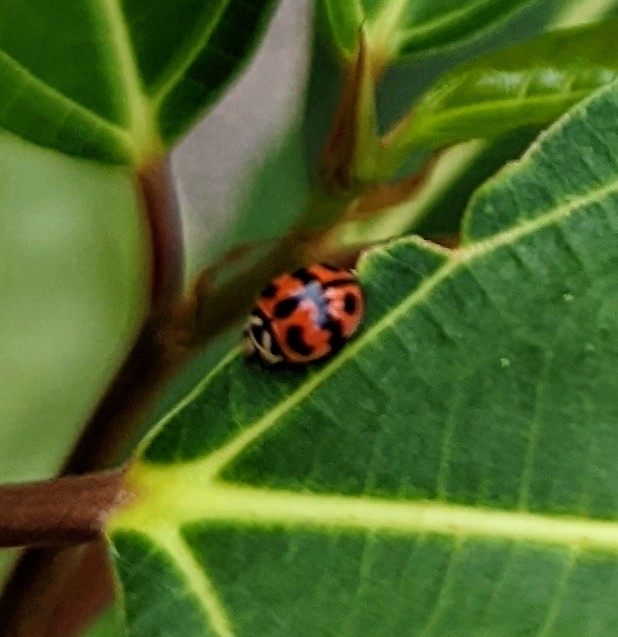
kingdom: Animalia
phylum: Arthropoda
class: Insecta
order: Coleoptera
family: Coccinellidae
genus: Cheilomenes
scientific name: Cheilomenes sexmaculata
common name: Ladybird beetle
